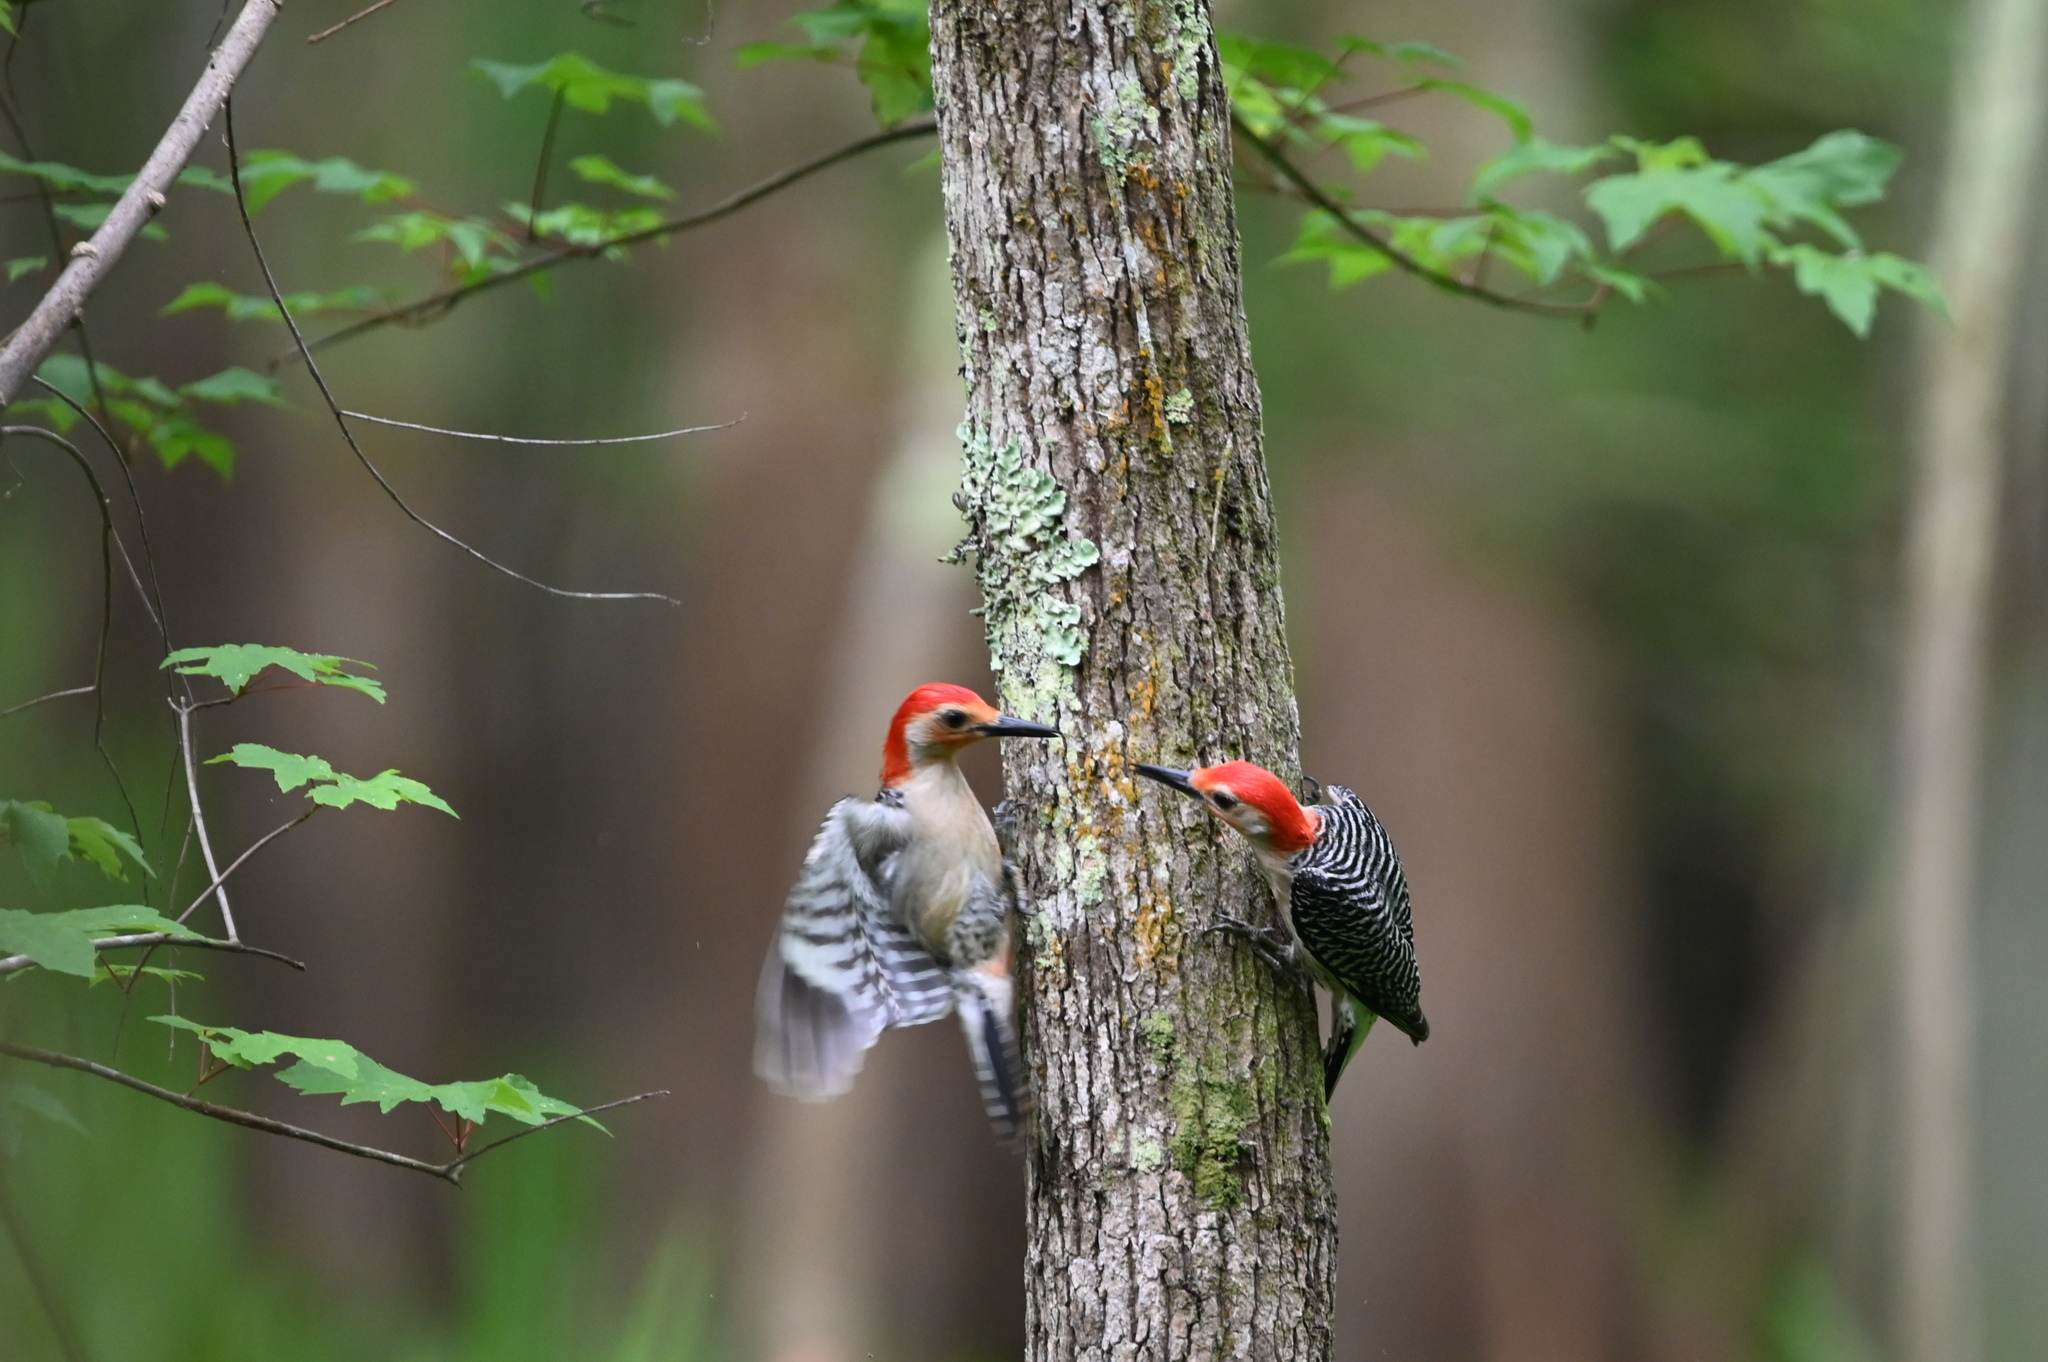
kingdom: Animalia
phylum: Chordata
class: Aves
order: Piciformes
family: Picidae
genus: Melanerpes
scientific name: Melanerpes carolinus
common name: Red-bellied woodpecker
